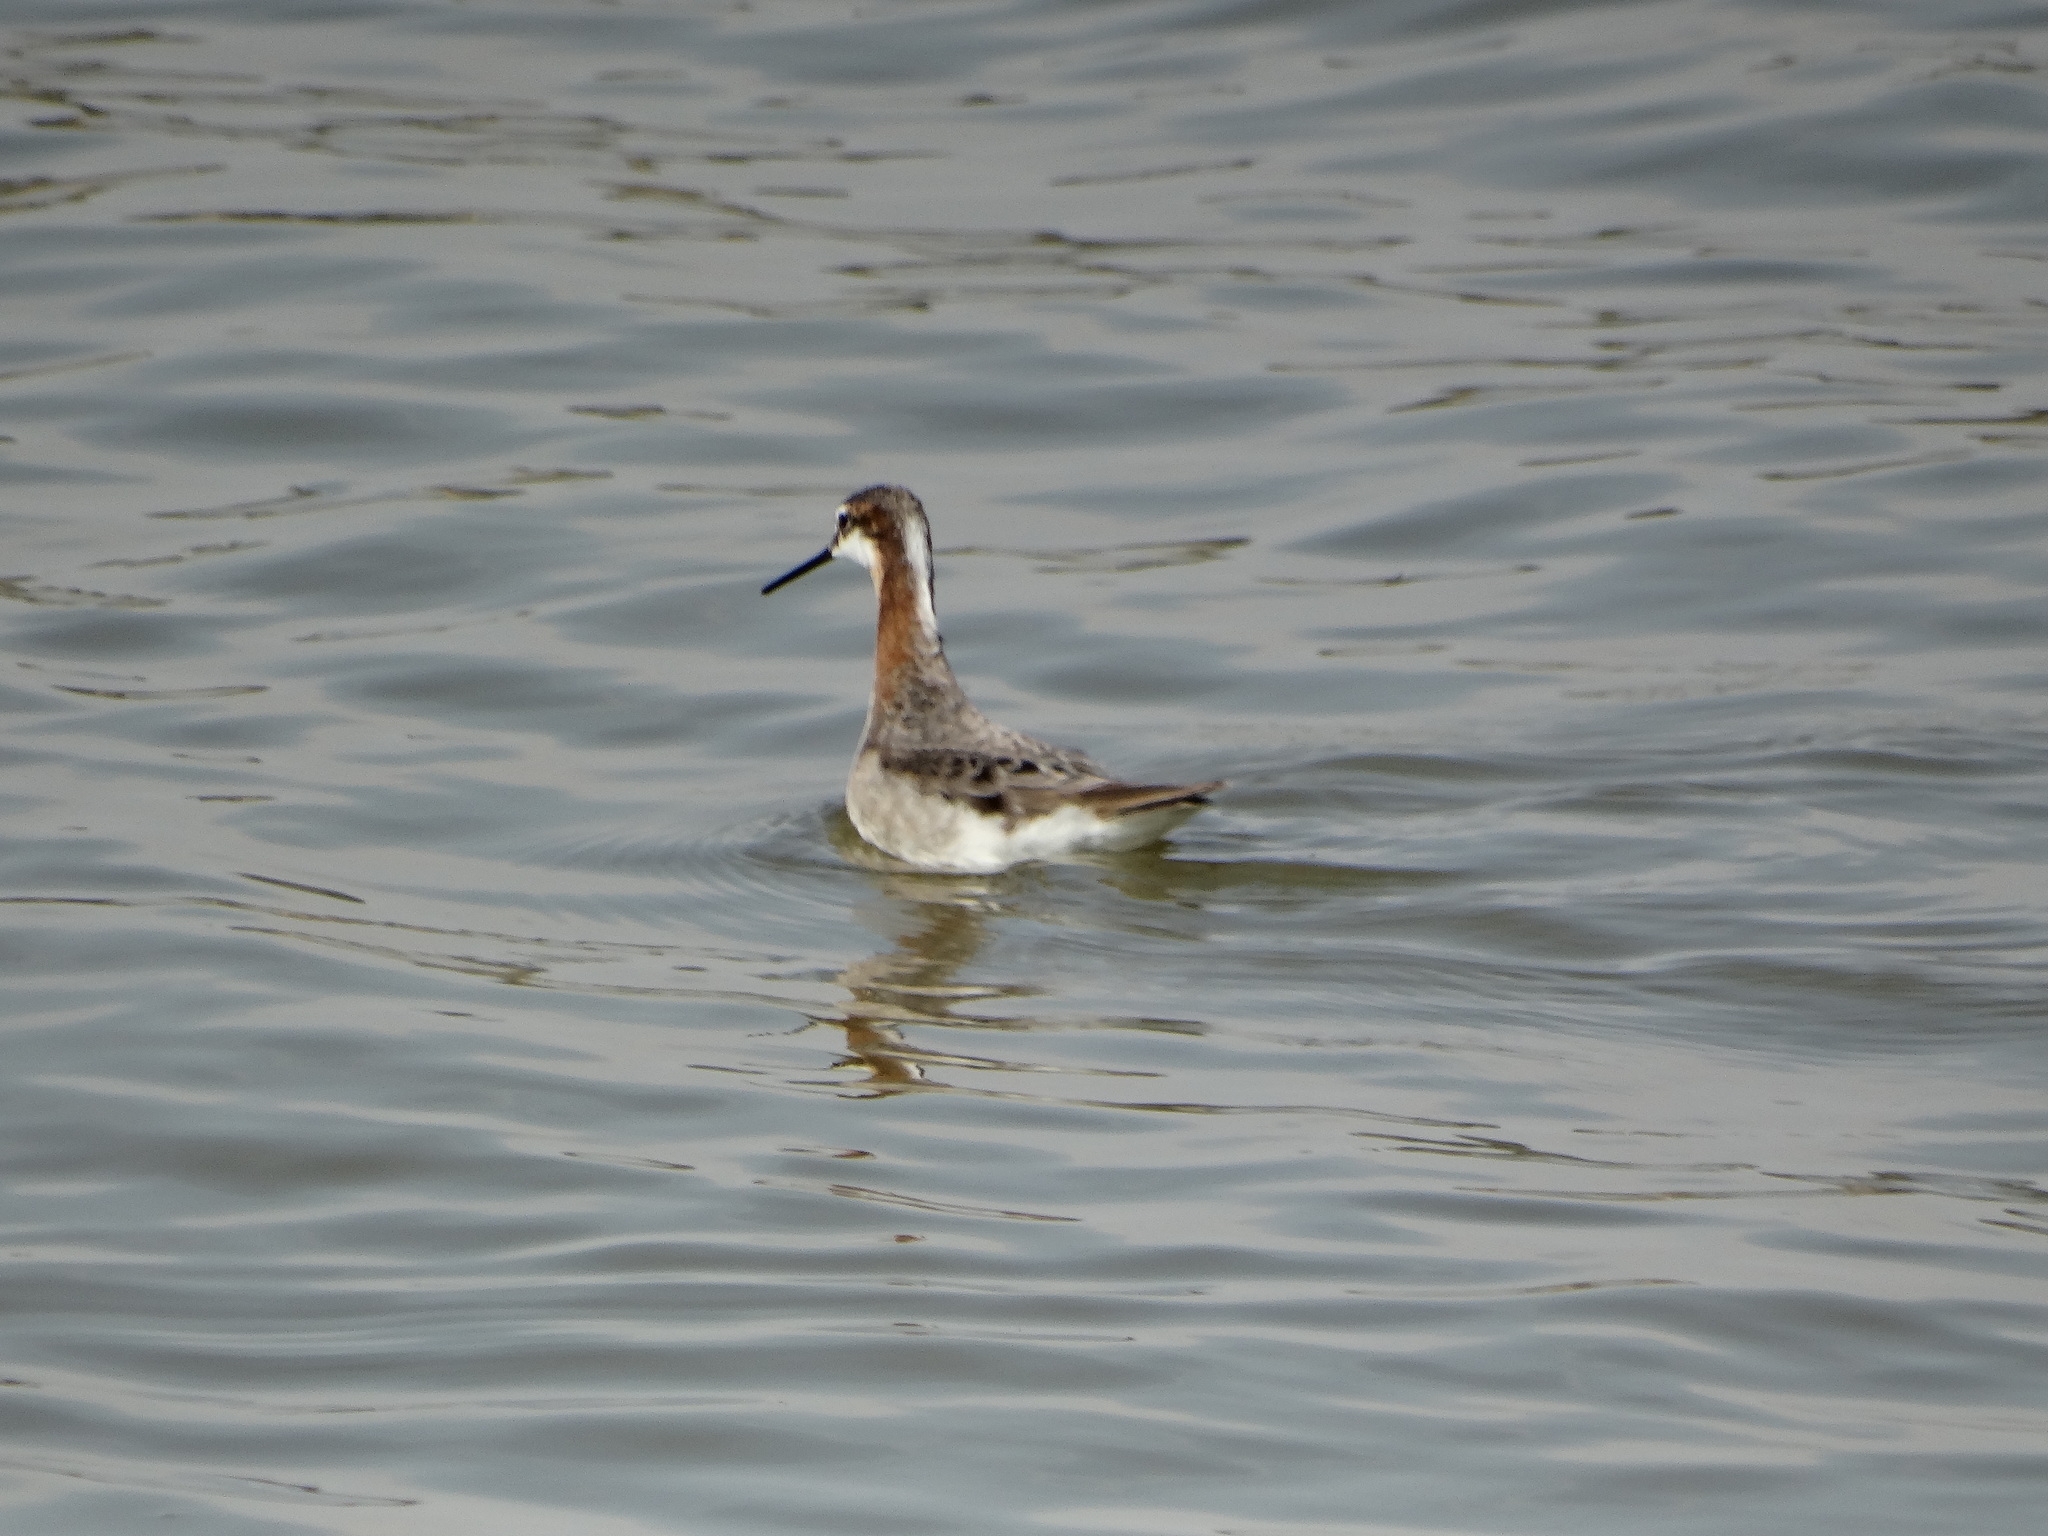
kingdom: Animalia
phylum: Chordata
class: Aves
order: Charadriiformes
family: Scolopacidae
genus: Phalaropus
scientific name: Phalaropus tricolor
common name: Wilson's phalarope
